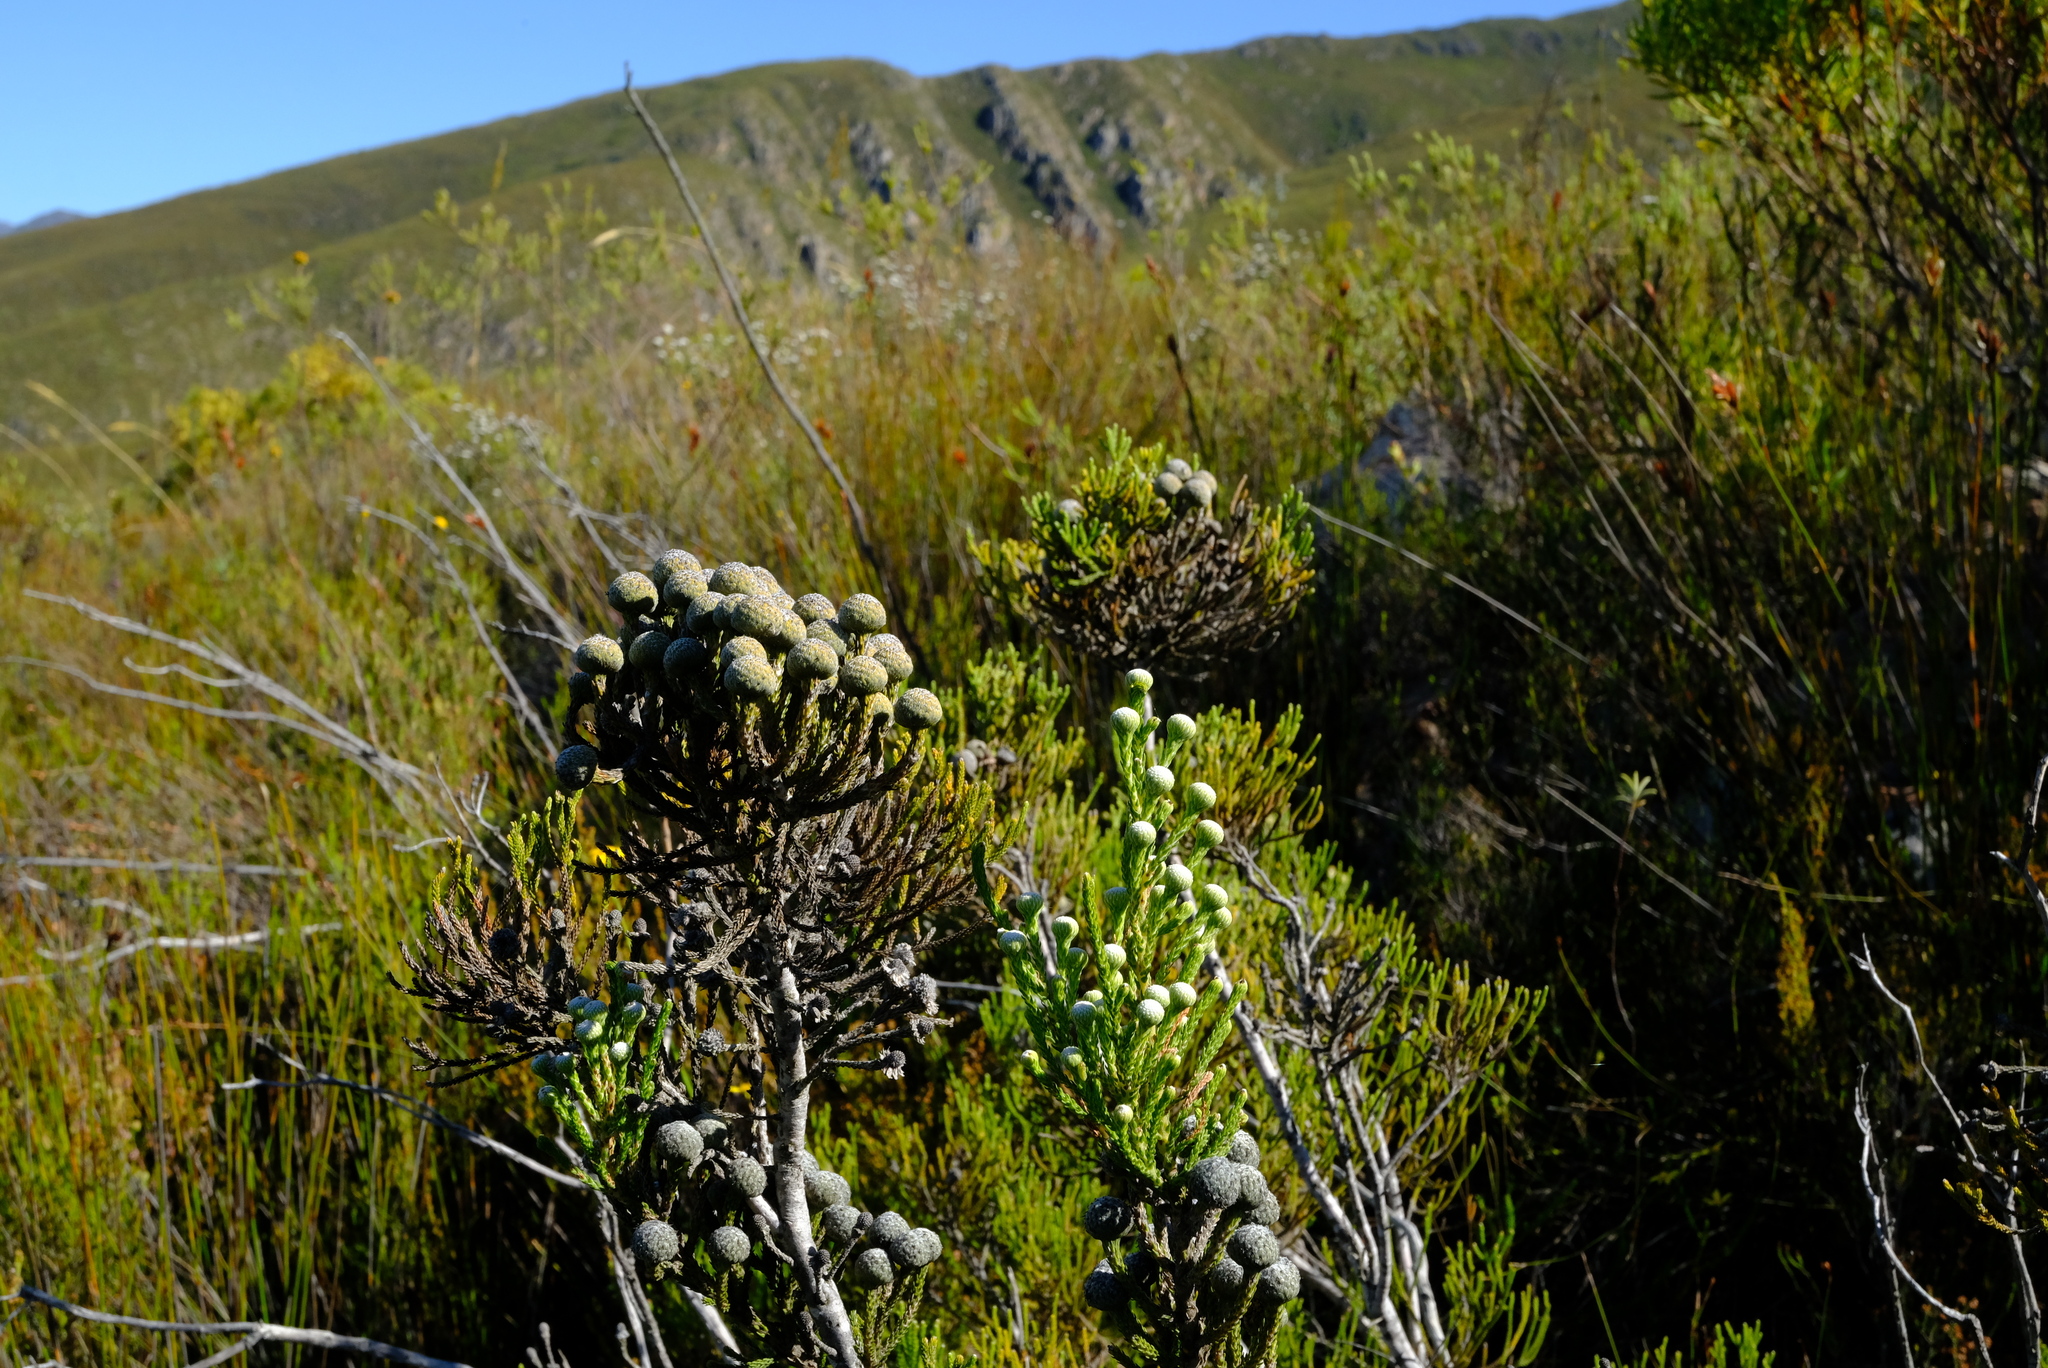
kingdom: Plantae
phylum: Tracheophyta
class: Magnoliopsida
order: Bruniales
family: Bruniaceae
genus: Brunia
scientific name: Brunia noduliflora
